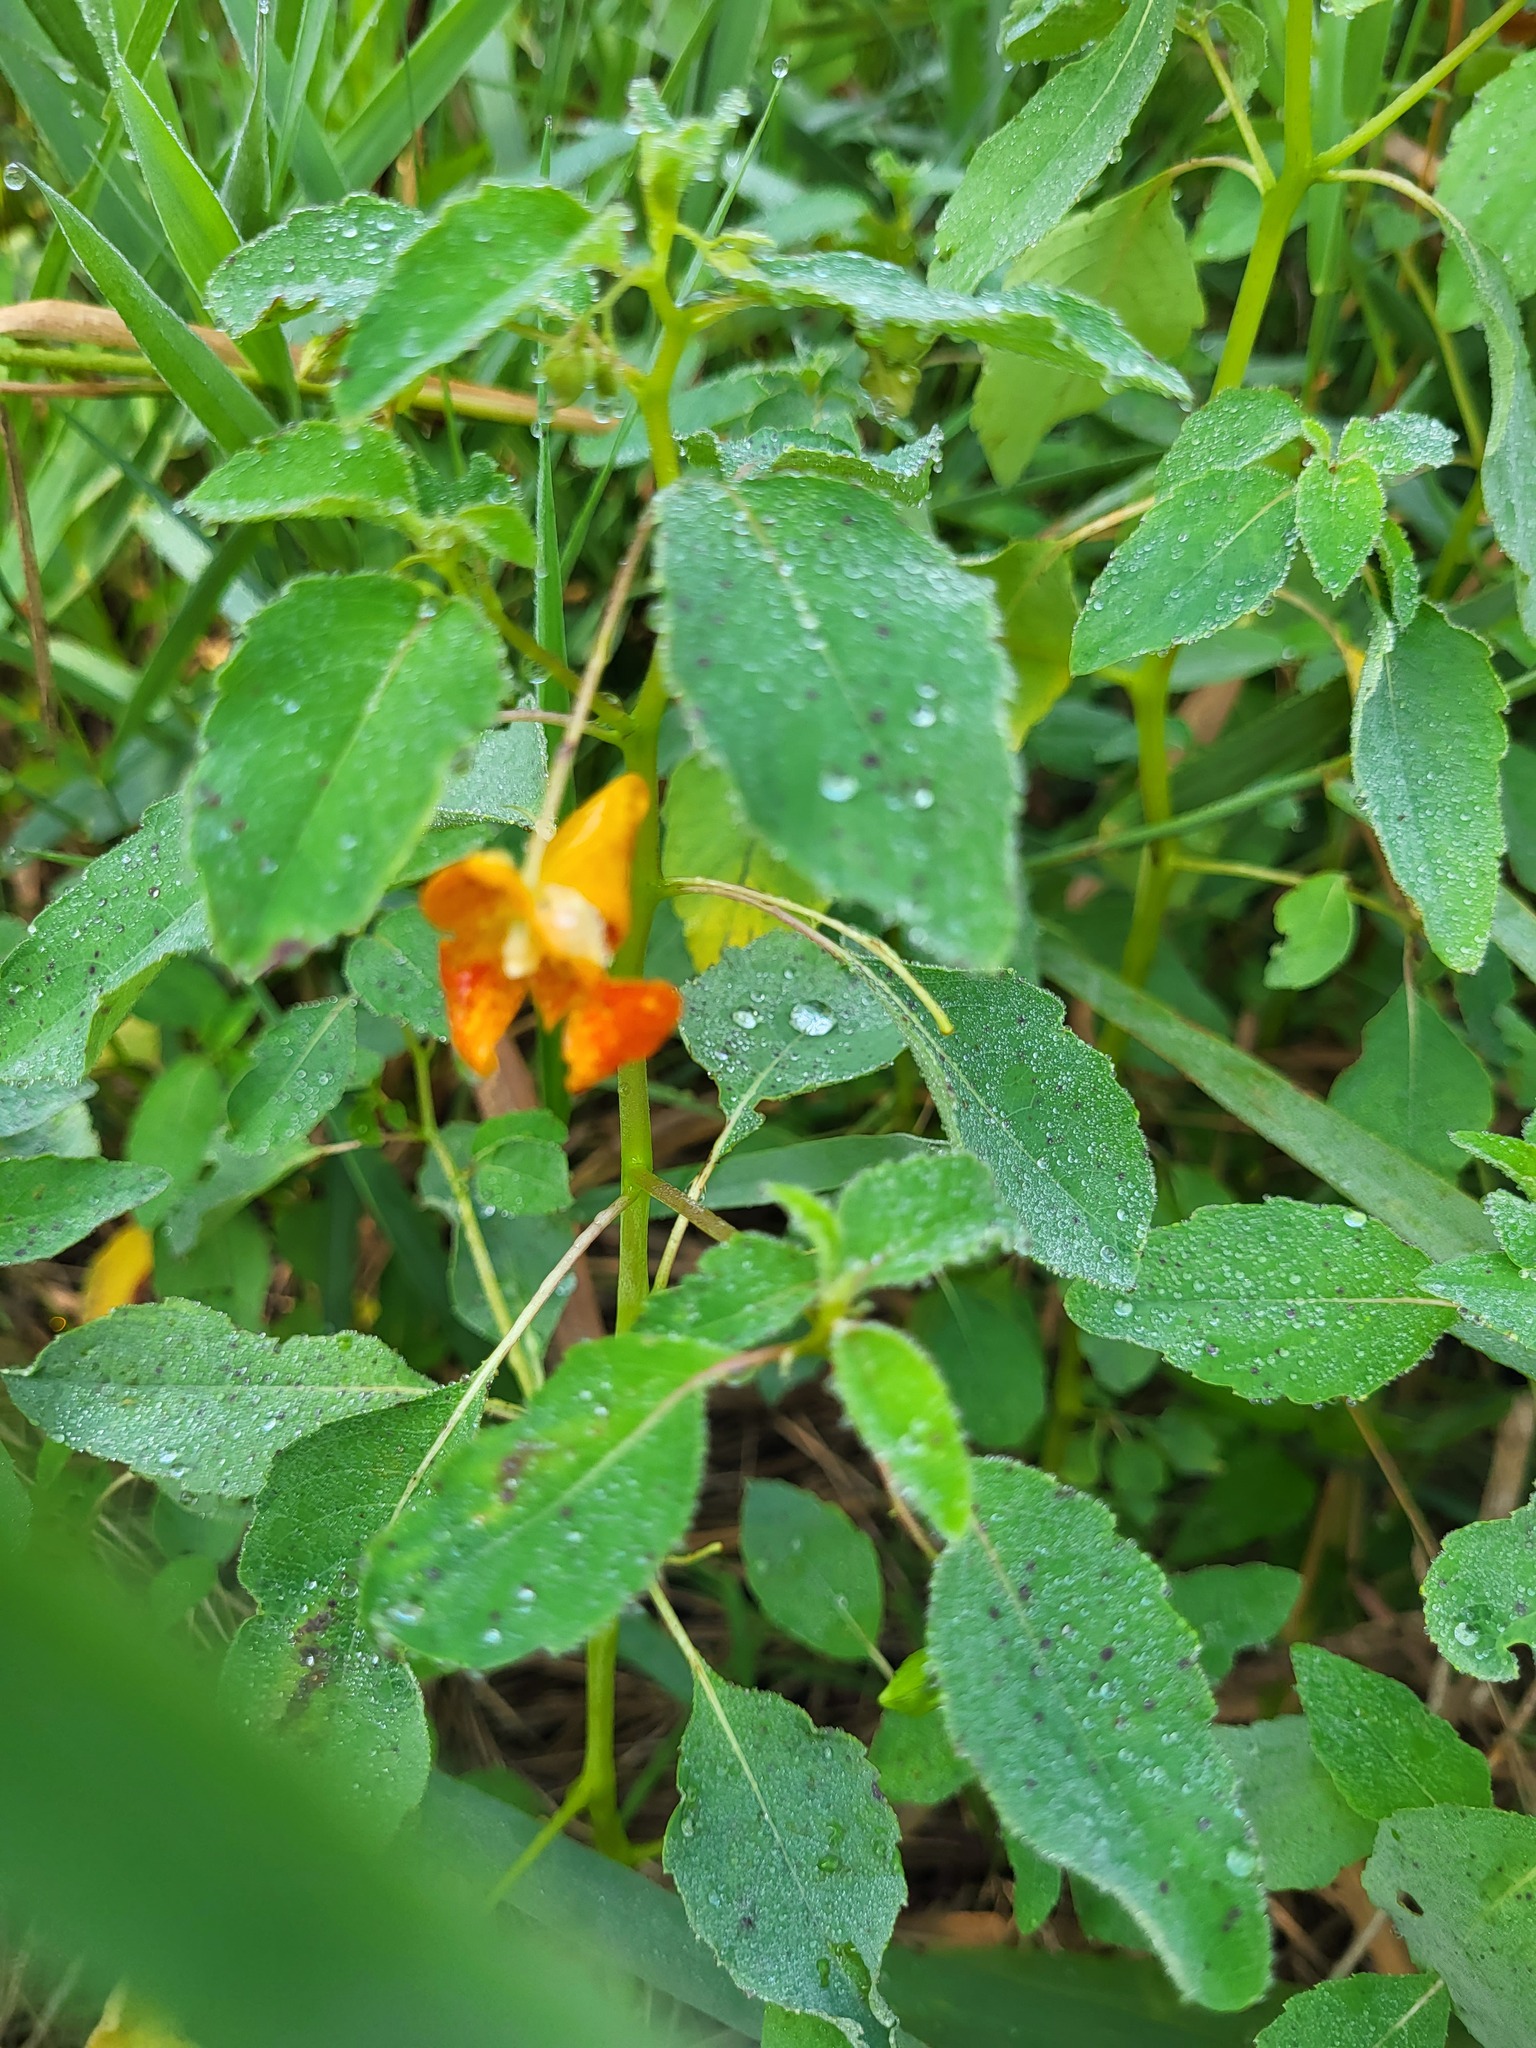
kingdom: Plantae
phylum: Tracheophyta
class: Magnoliopsida
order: Ericales
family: Balsaminaceae
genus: Impatiens
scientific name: Impatiens capensis
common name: Orange balsam
